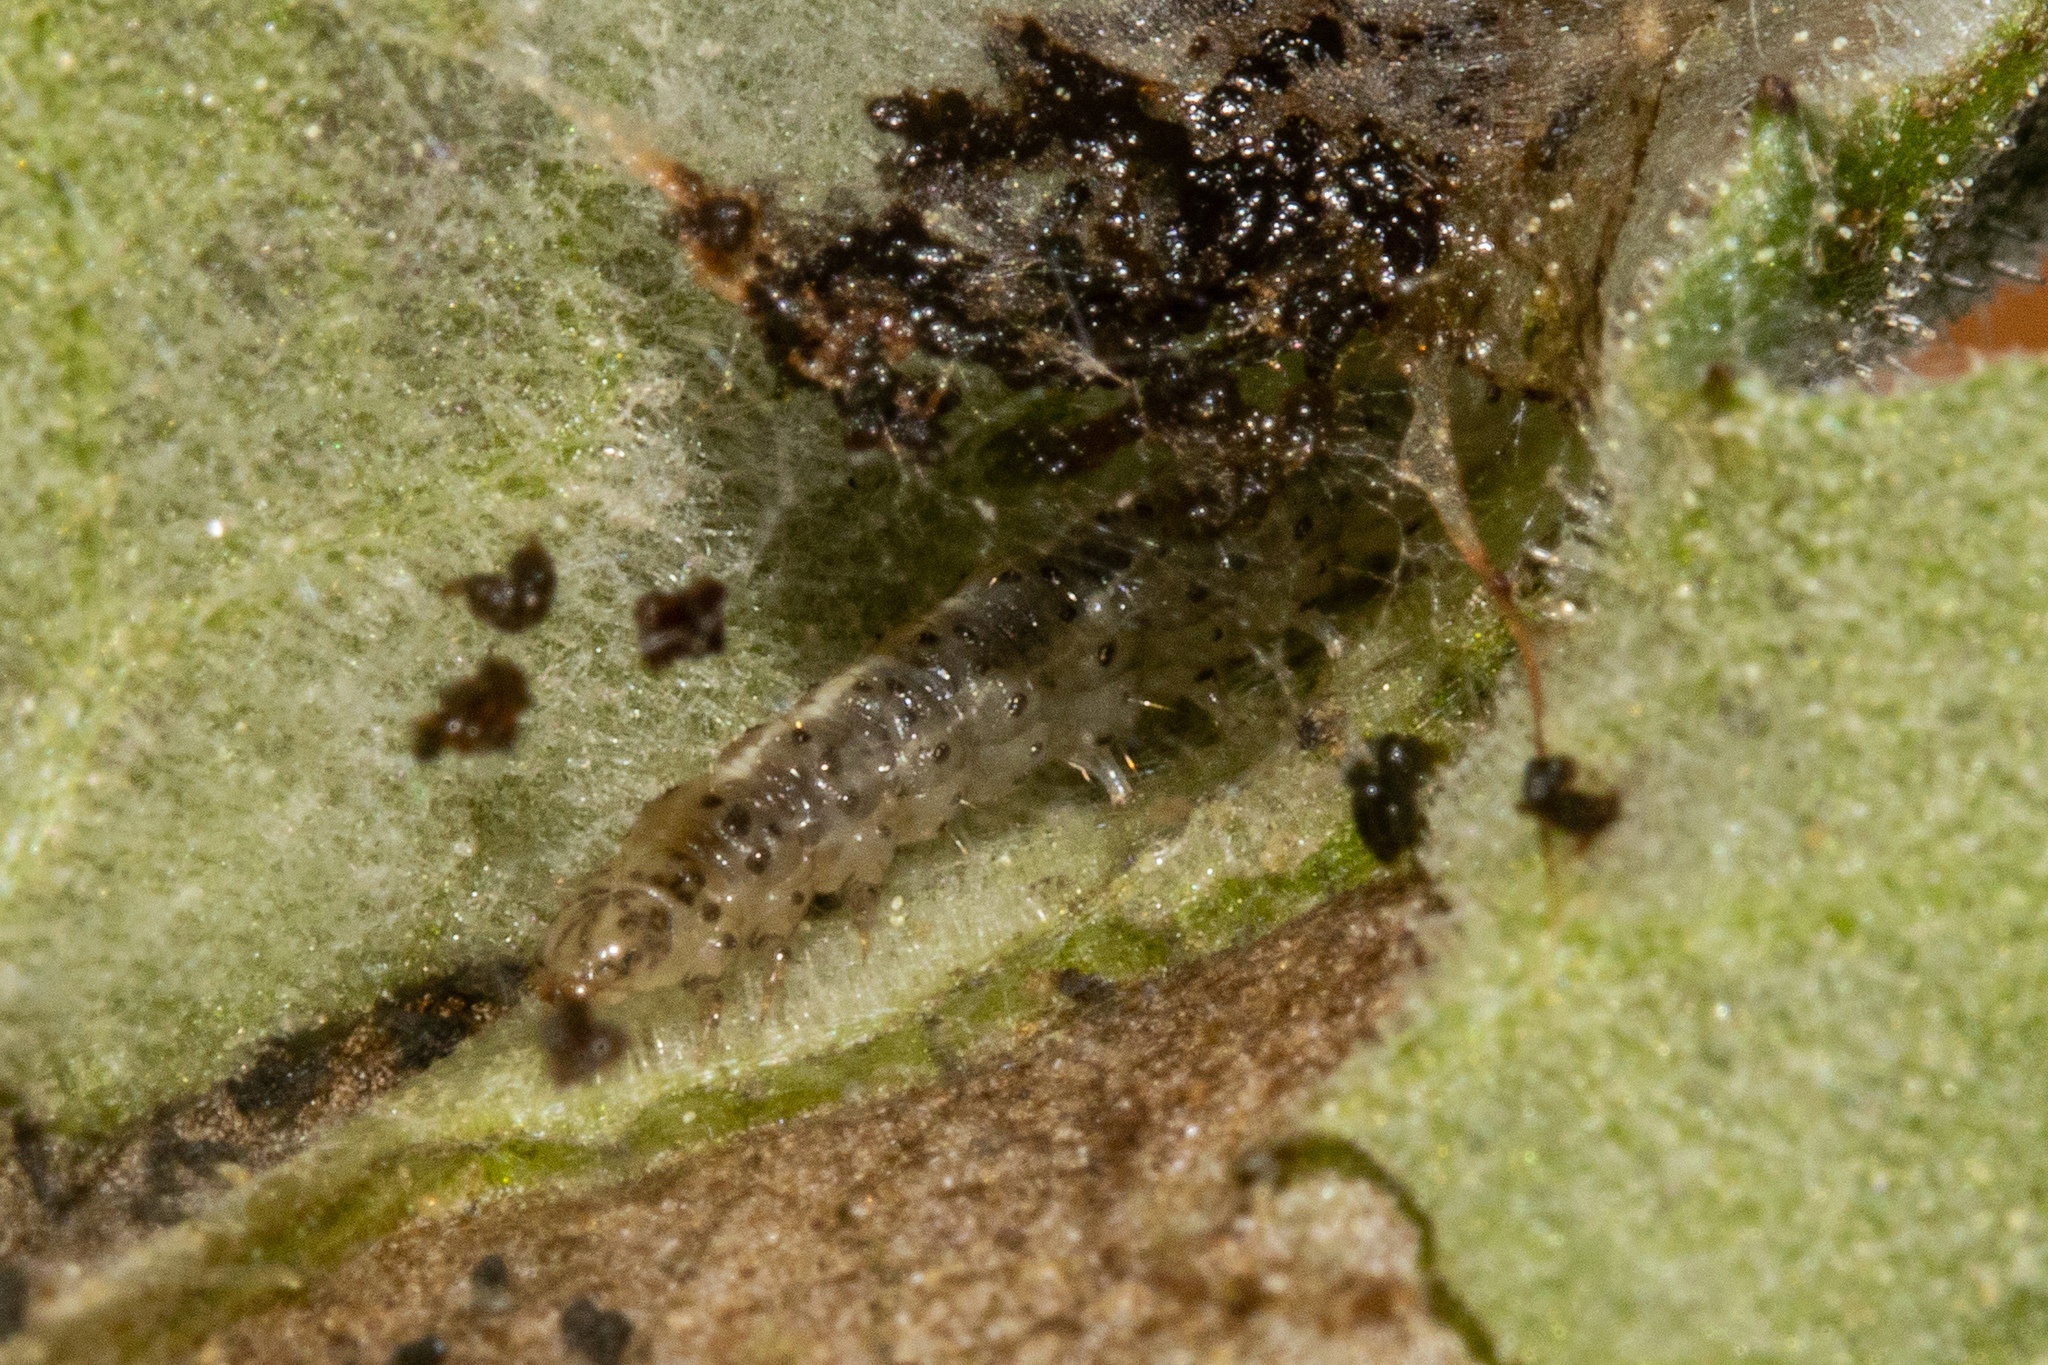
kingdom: Animalia
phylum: Arthropoda
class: Insecta
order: Lepidoptera
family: Choreutidae
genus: Asterivora
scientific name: Asterivora colpota
